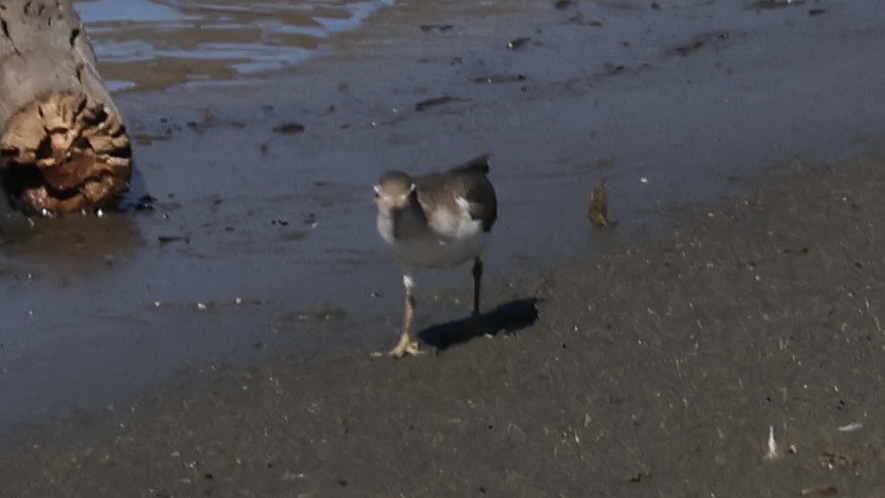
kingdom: Animalia
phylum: Chordata
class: Aves
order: Charadriiformes
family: Scolopacidae
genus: Actitis
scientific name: Actitis macularius
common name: Spotted sandpiper
